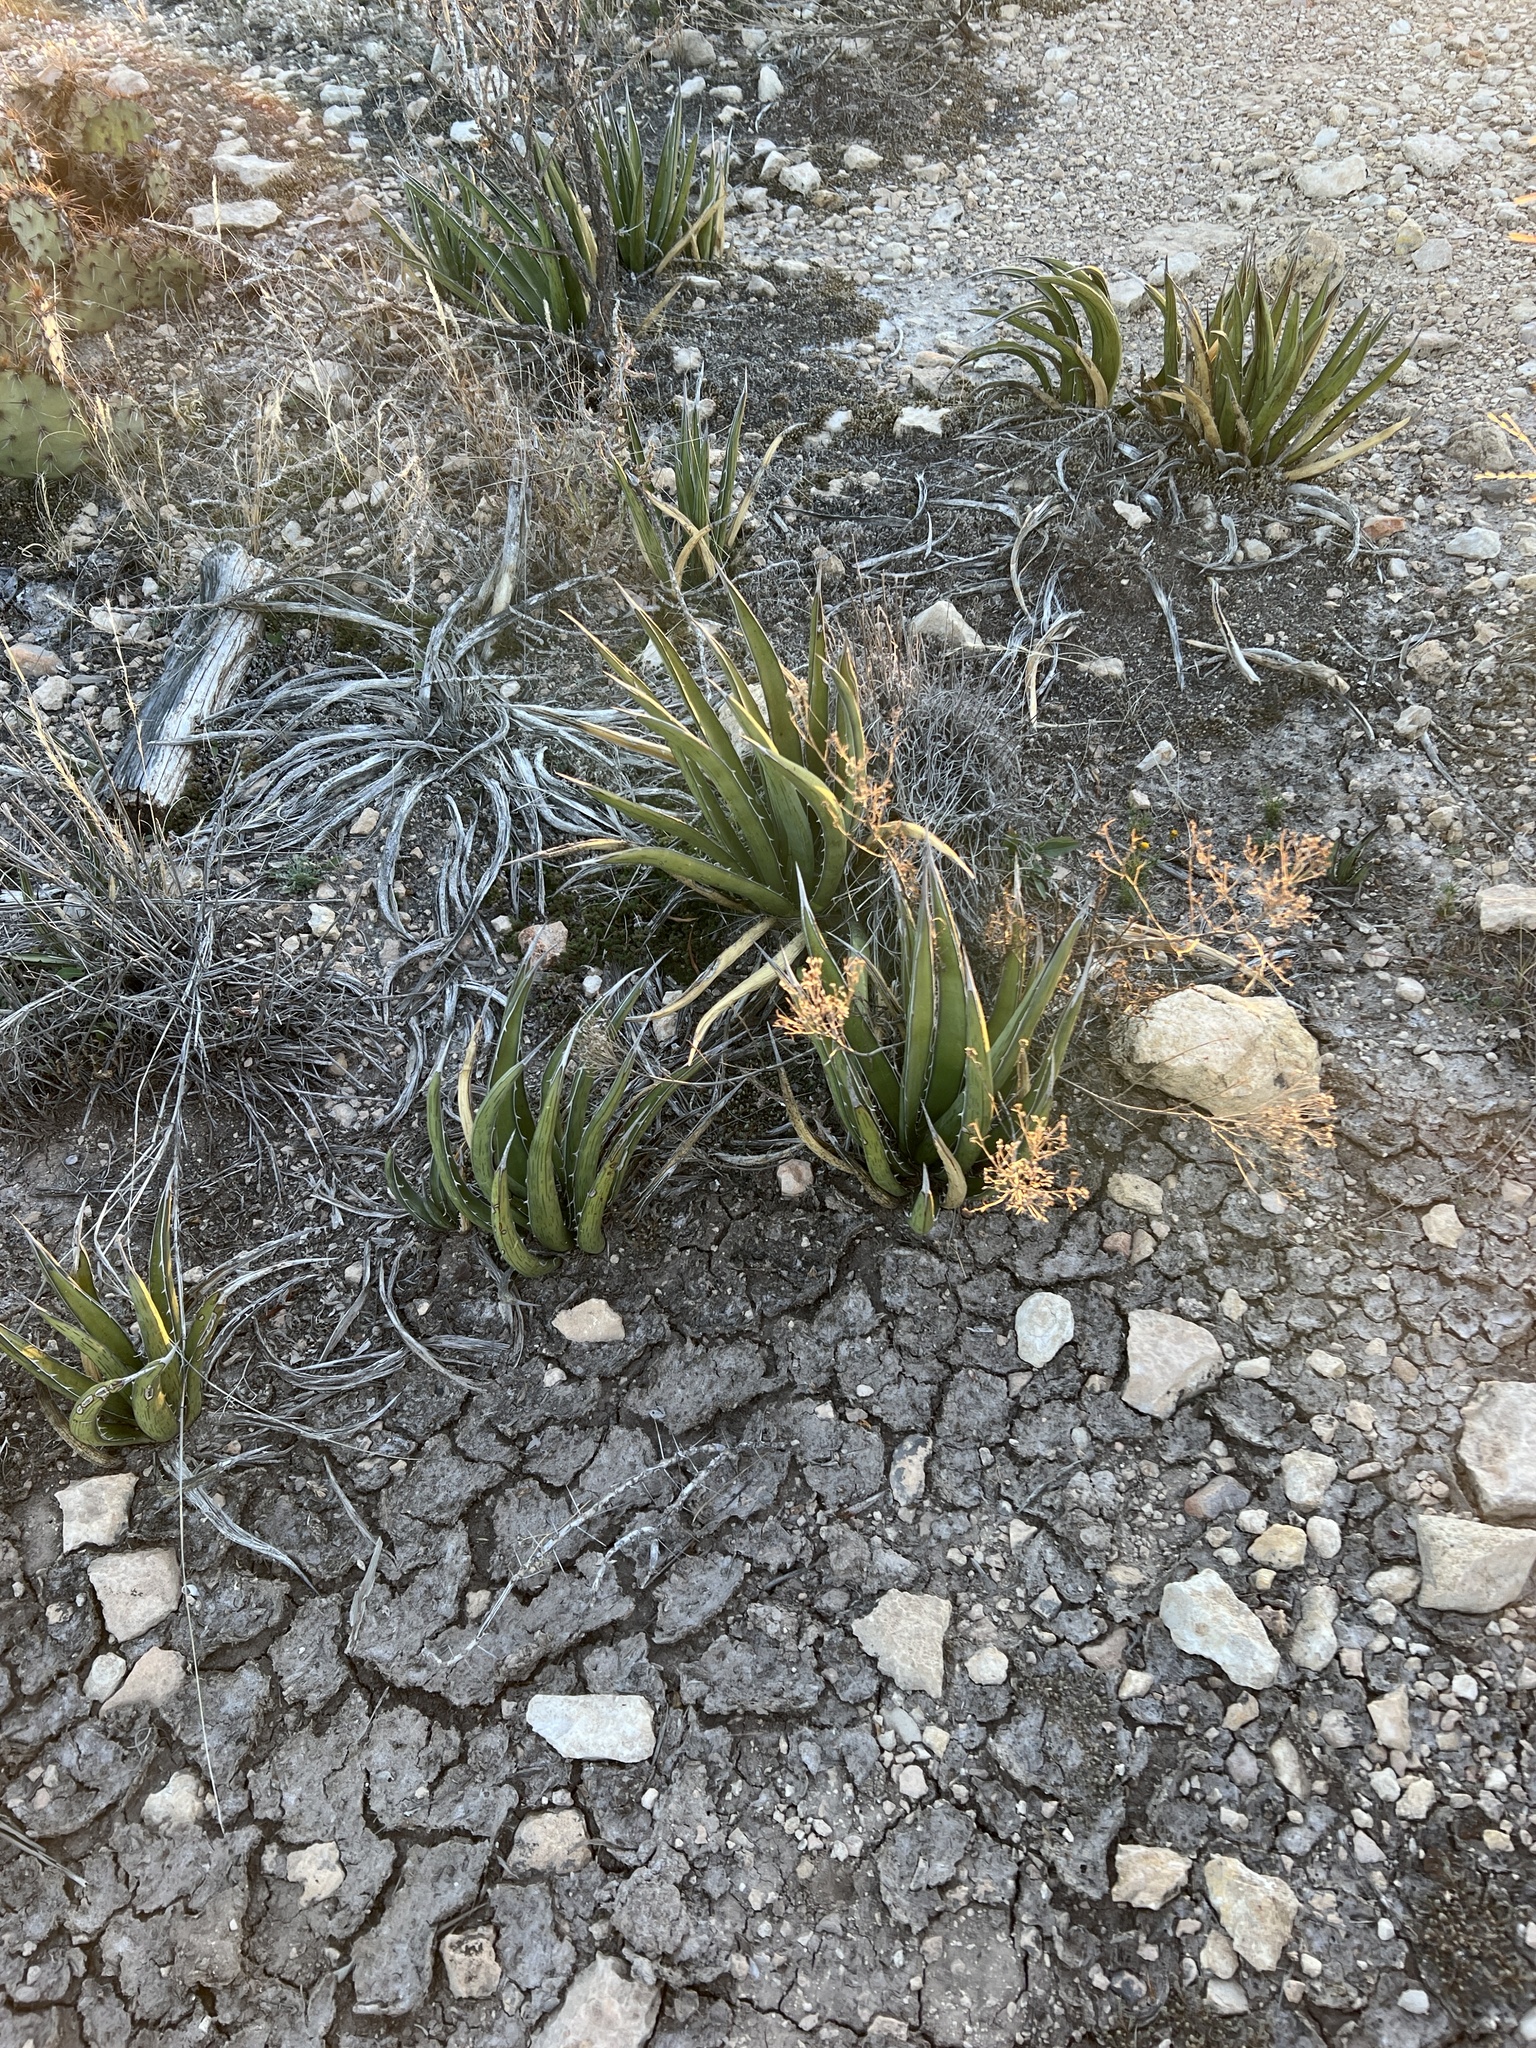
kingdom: Plantae
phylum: Tracheophyta
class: Liliopsida
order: Asparagales
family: Asparagaceae
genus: Agave
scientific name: Agave lechuguilla
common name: Lecheguilla agave
